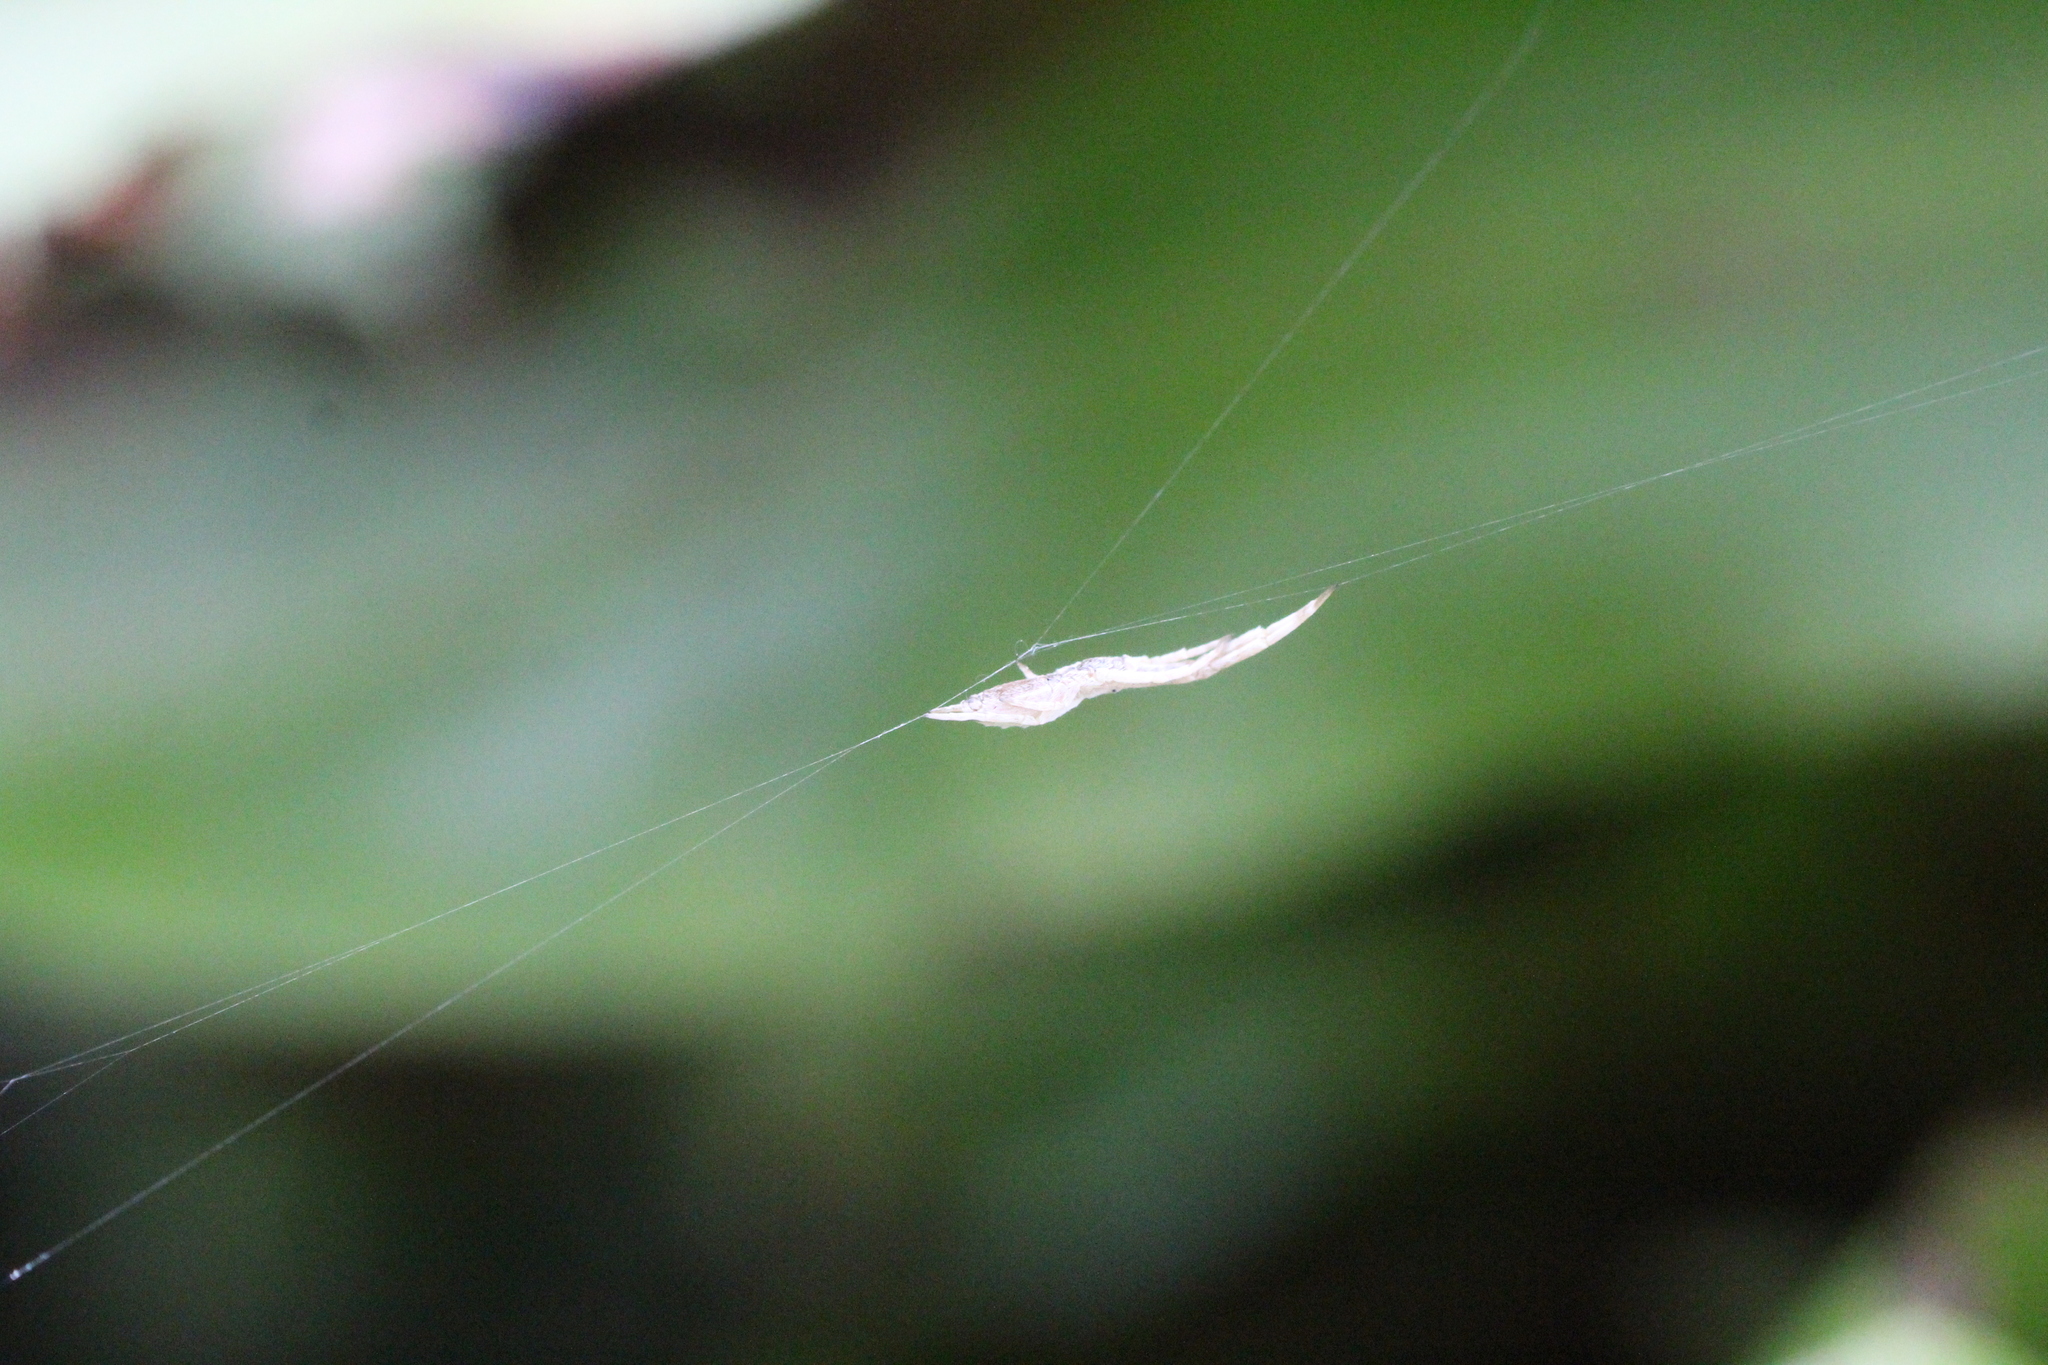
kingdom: Animalia
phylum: Arthropoda
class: Arachnida
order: Araneae
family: Uloboridae
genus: Uloborus
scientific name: Uloborus walckenaerius
